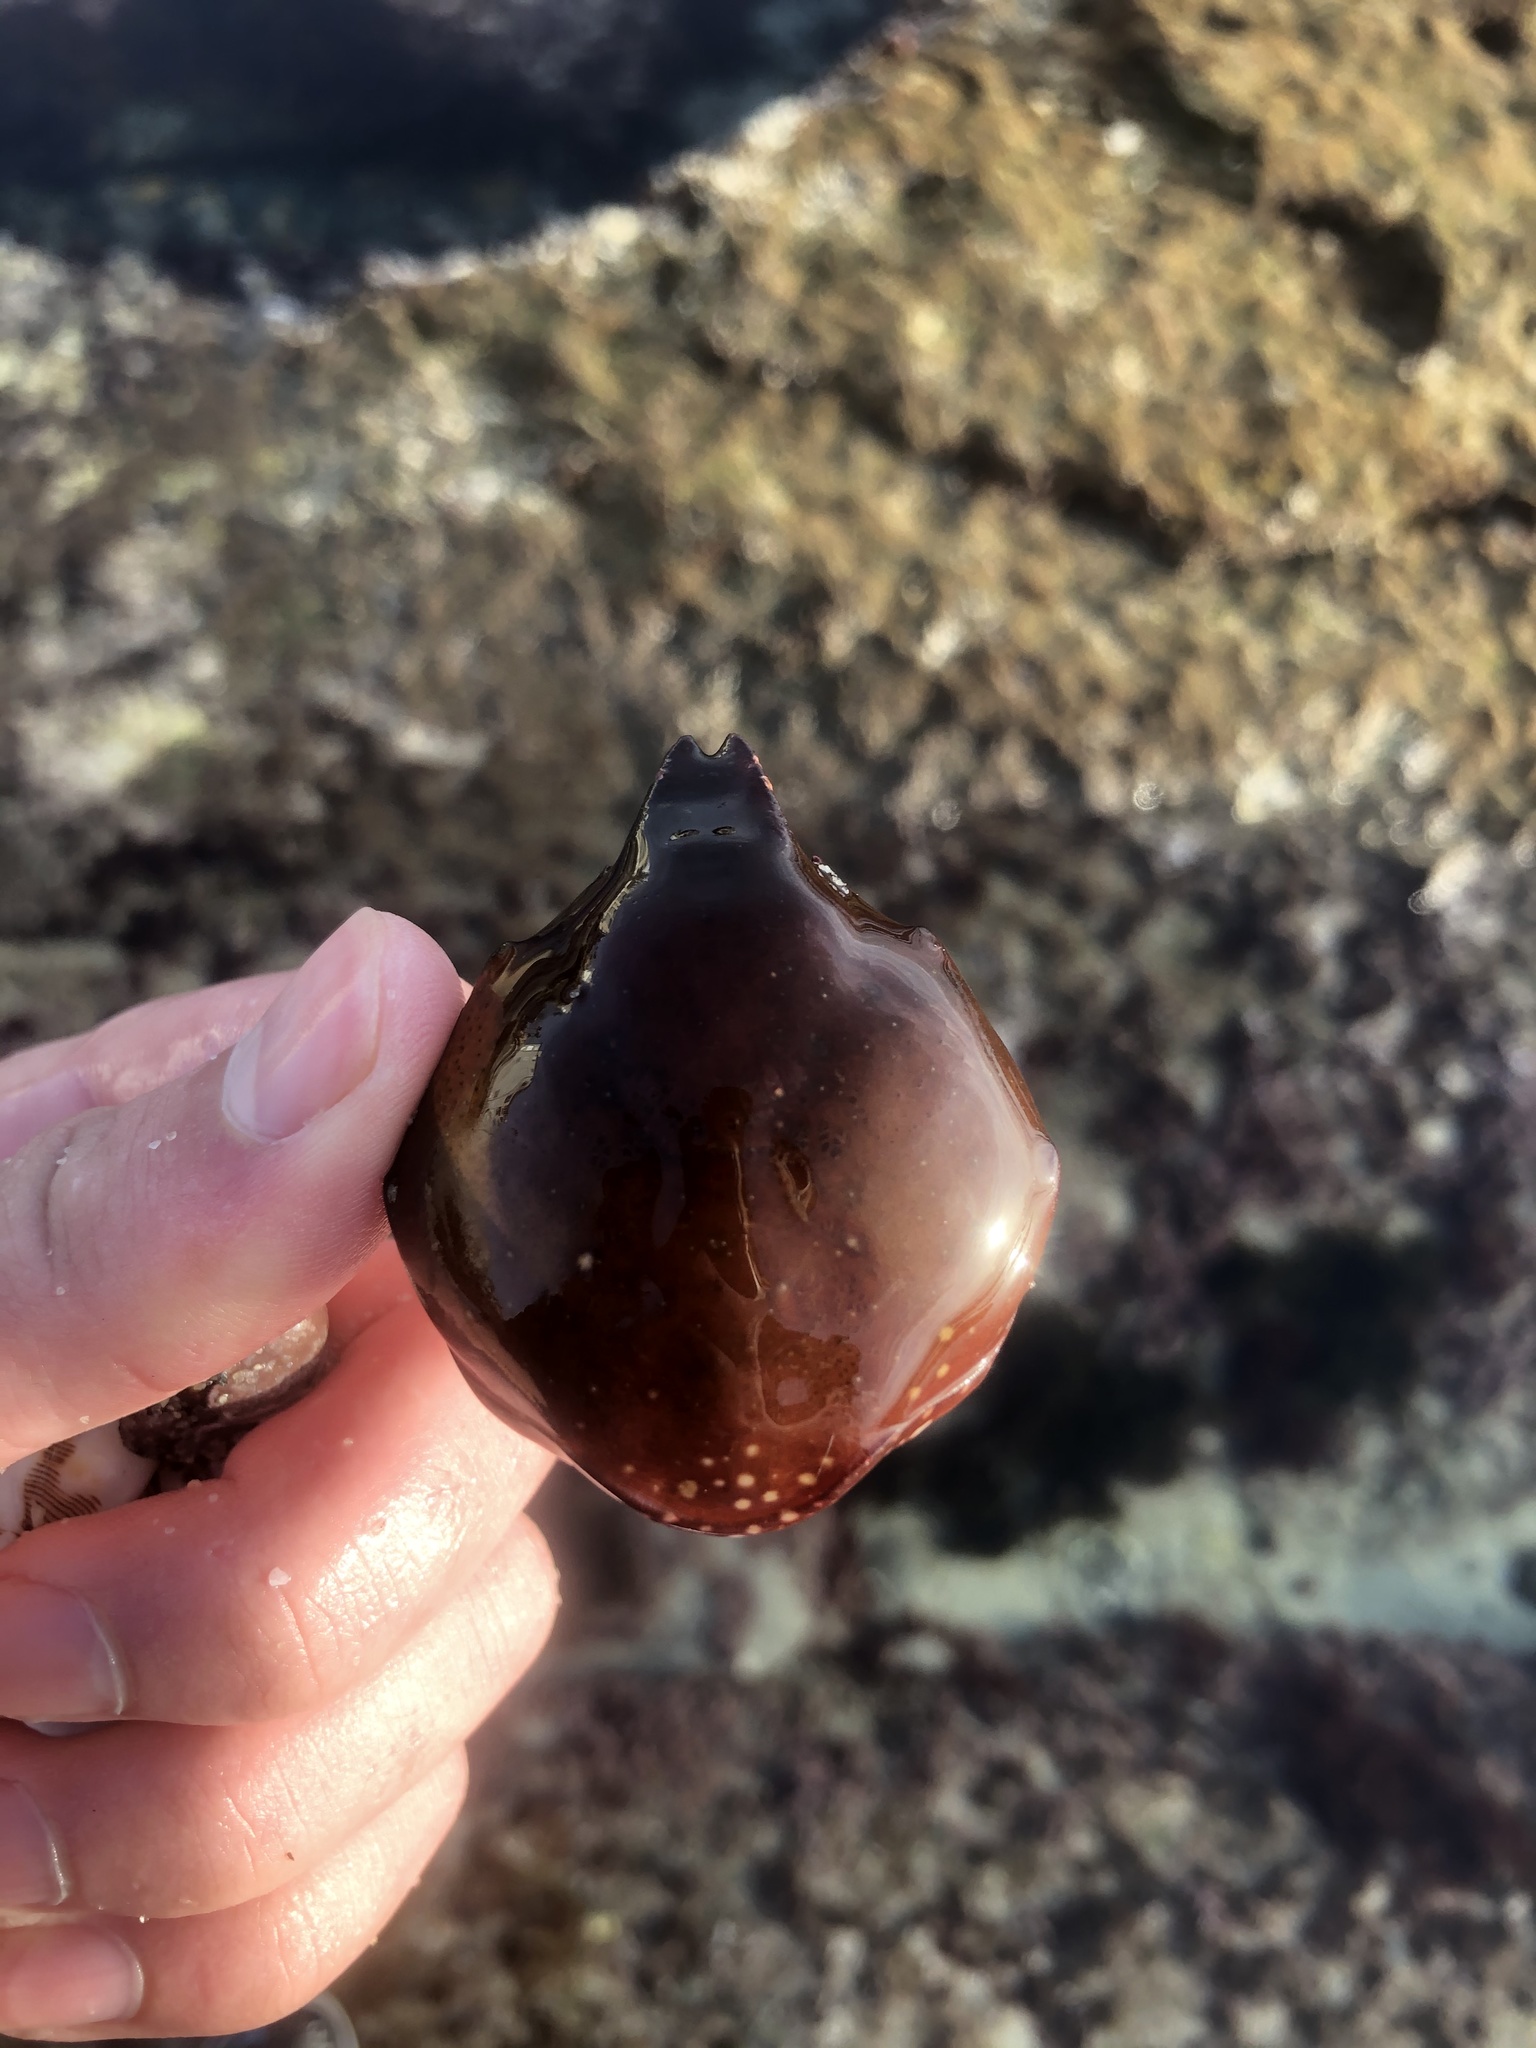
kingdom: Animalia
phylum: Arthropoda
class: Malacostraca
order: Decapoda
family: Epialtidae
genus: Taliepus
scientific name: Taliepus nuttallii
